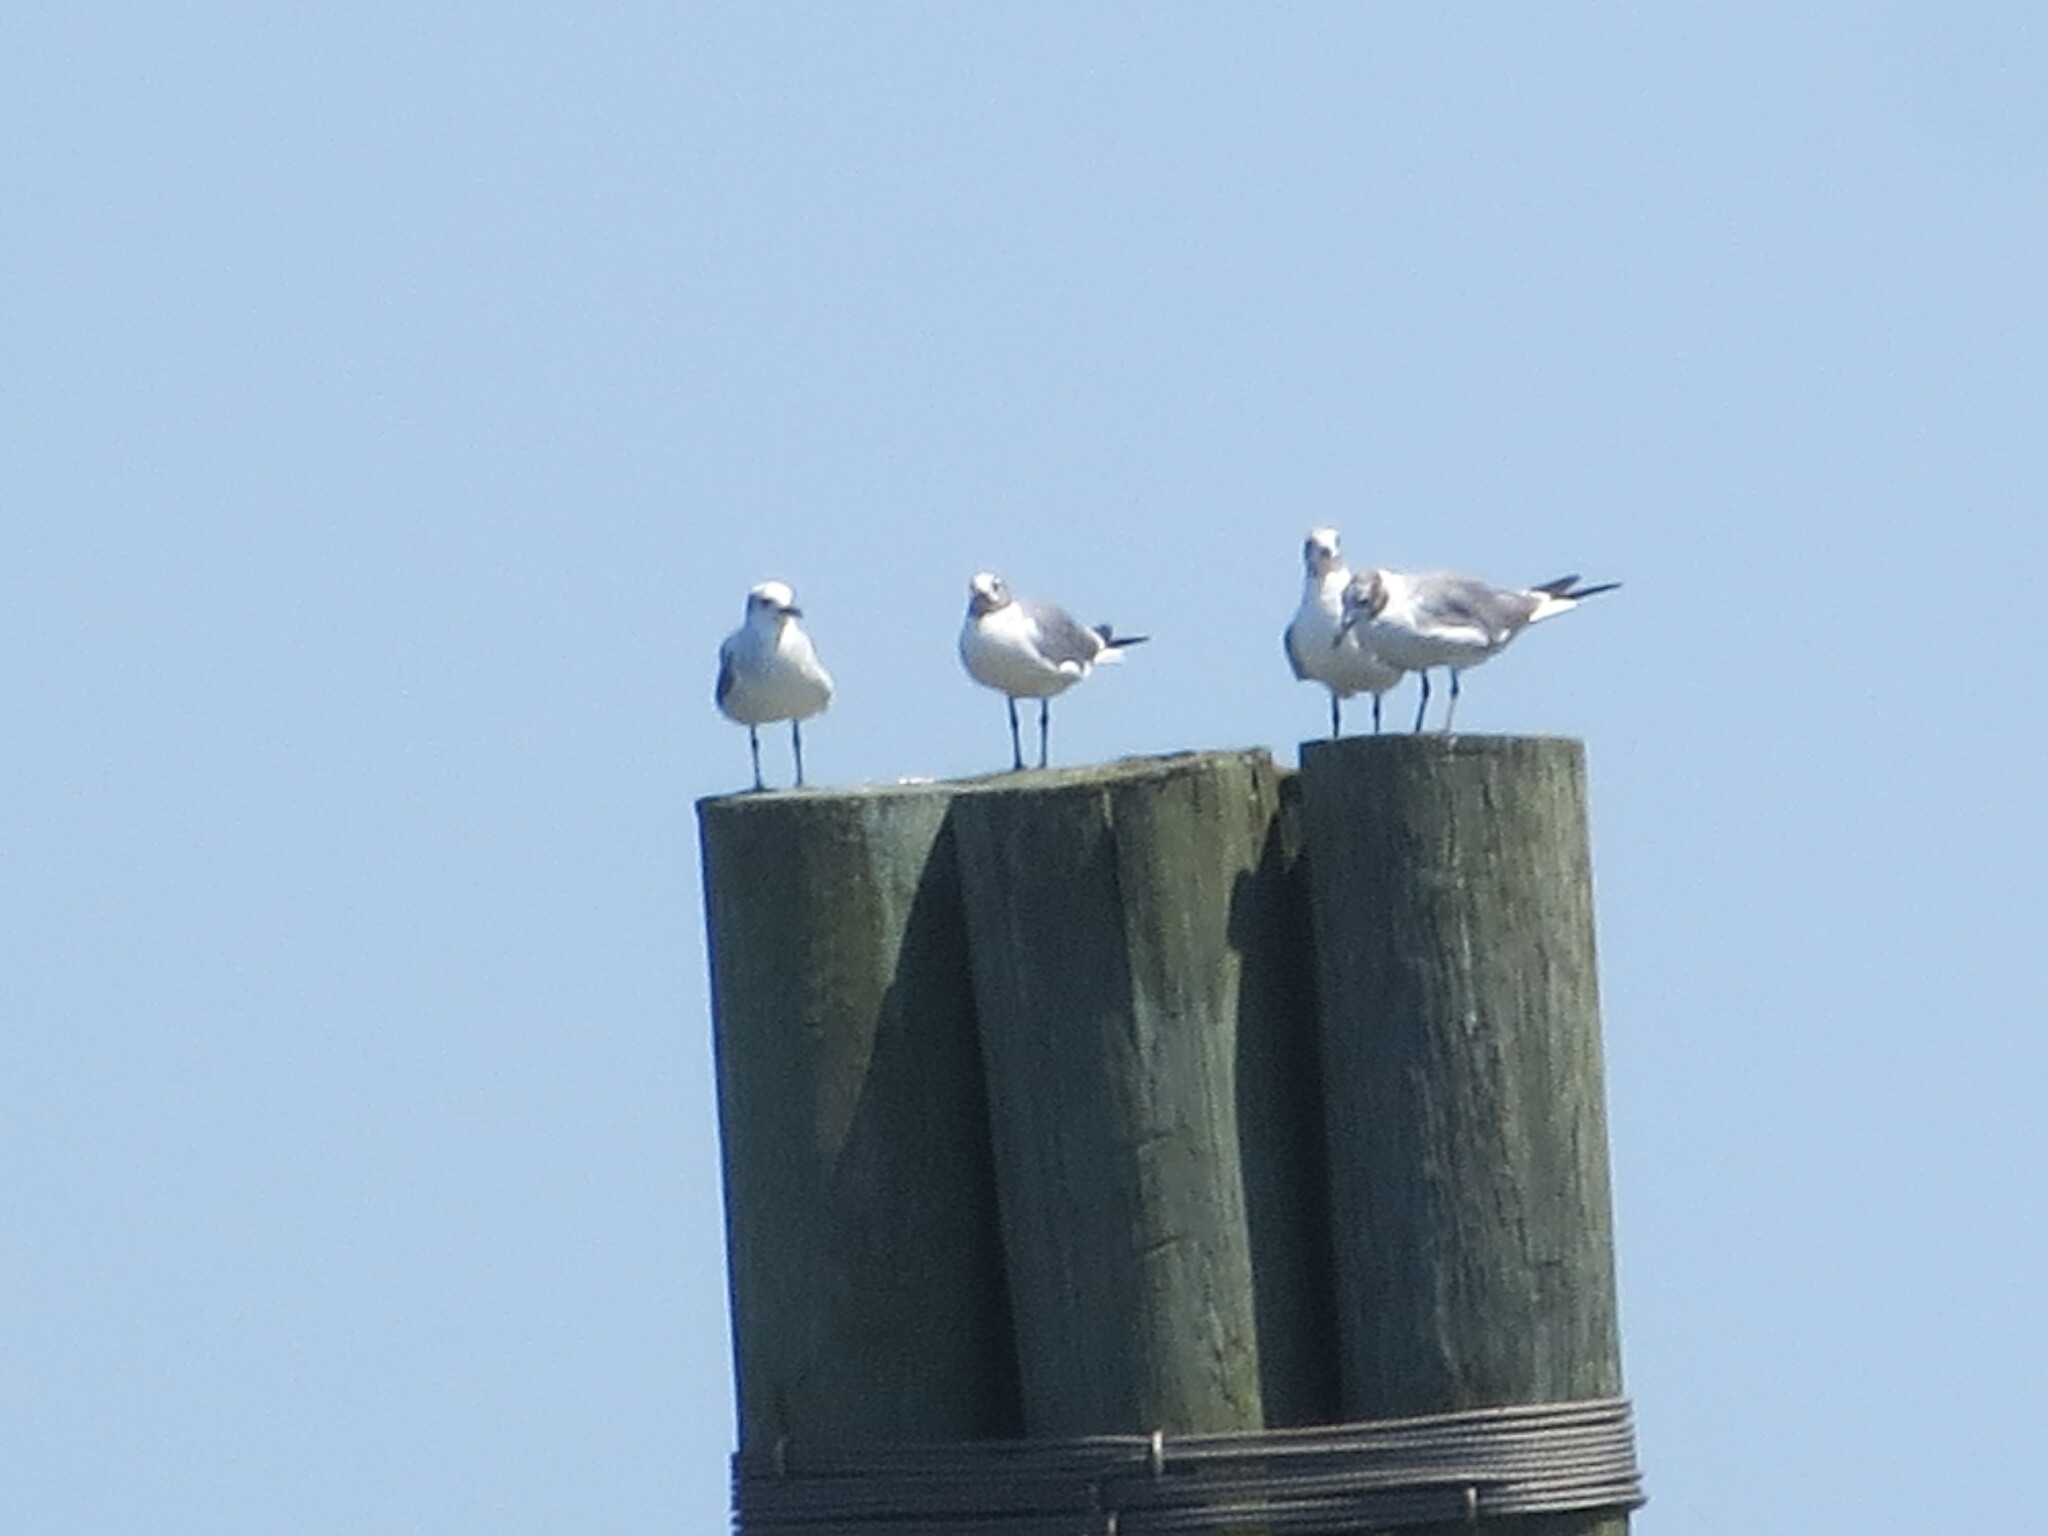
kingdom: Animalia
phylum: Chordata
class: Aves
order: Charadriiformes
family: Laridae
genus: Leucophaeus
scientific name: Leucophaeus atricilla
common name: Laughing gull
